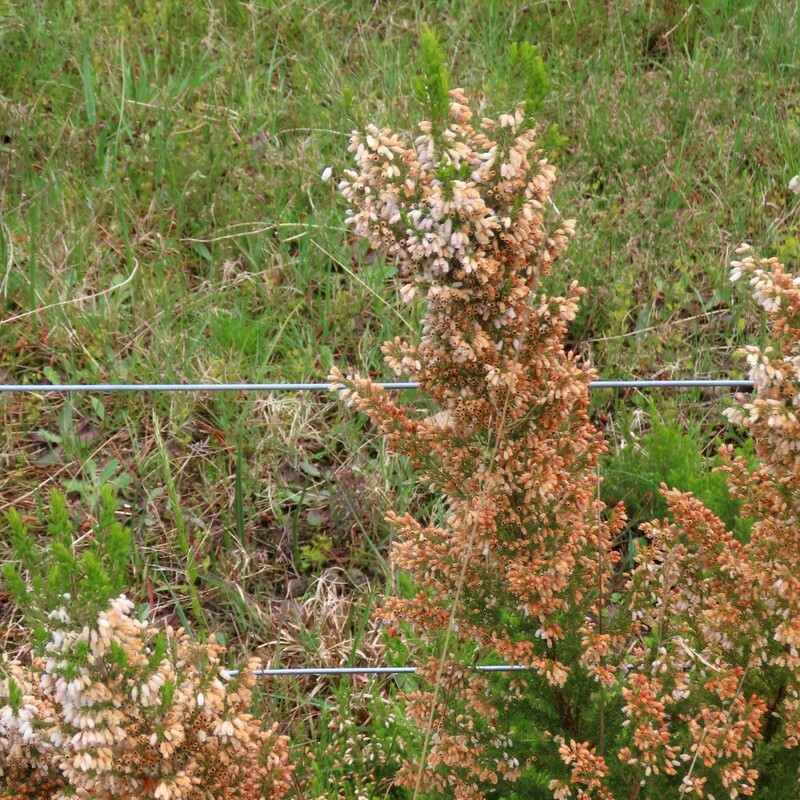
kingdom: Plantae
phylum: Tracheophyta
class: Magnoliopsida
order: Ericales
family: Ericaceae
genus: Erica
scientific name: Erica lusitanica
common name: Spanish heath
